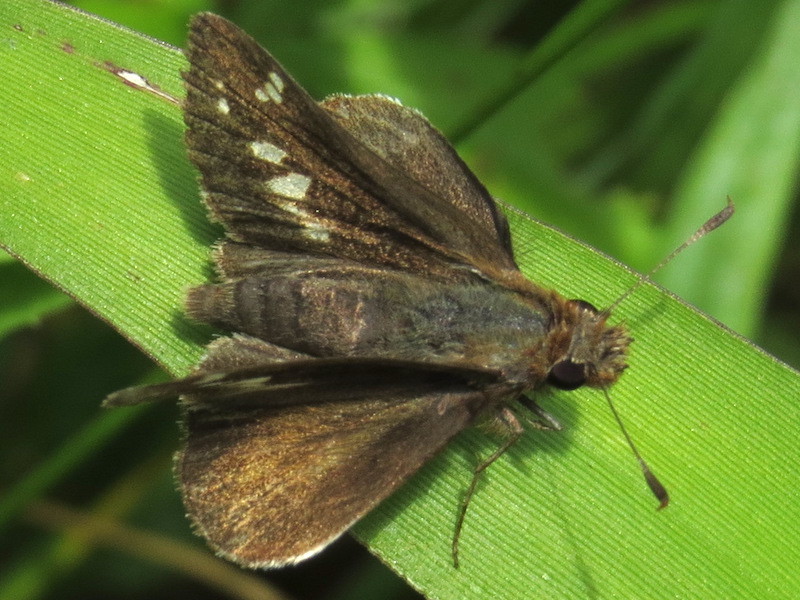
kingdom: Animalia
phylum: Arthropoda
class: Insecta
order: Lepidoptera
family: Hesperiidae
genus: Lon
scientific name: Lon zabulon
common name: Zabulon skipper
